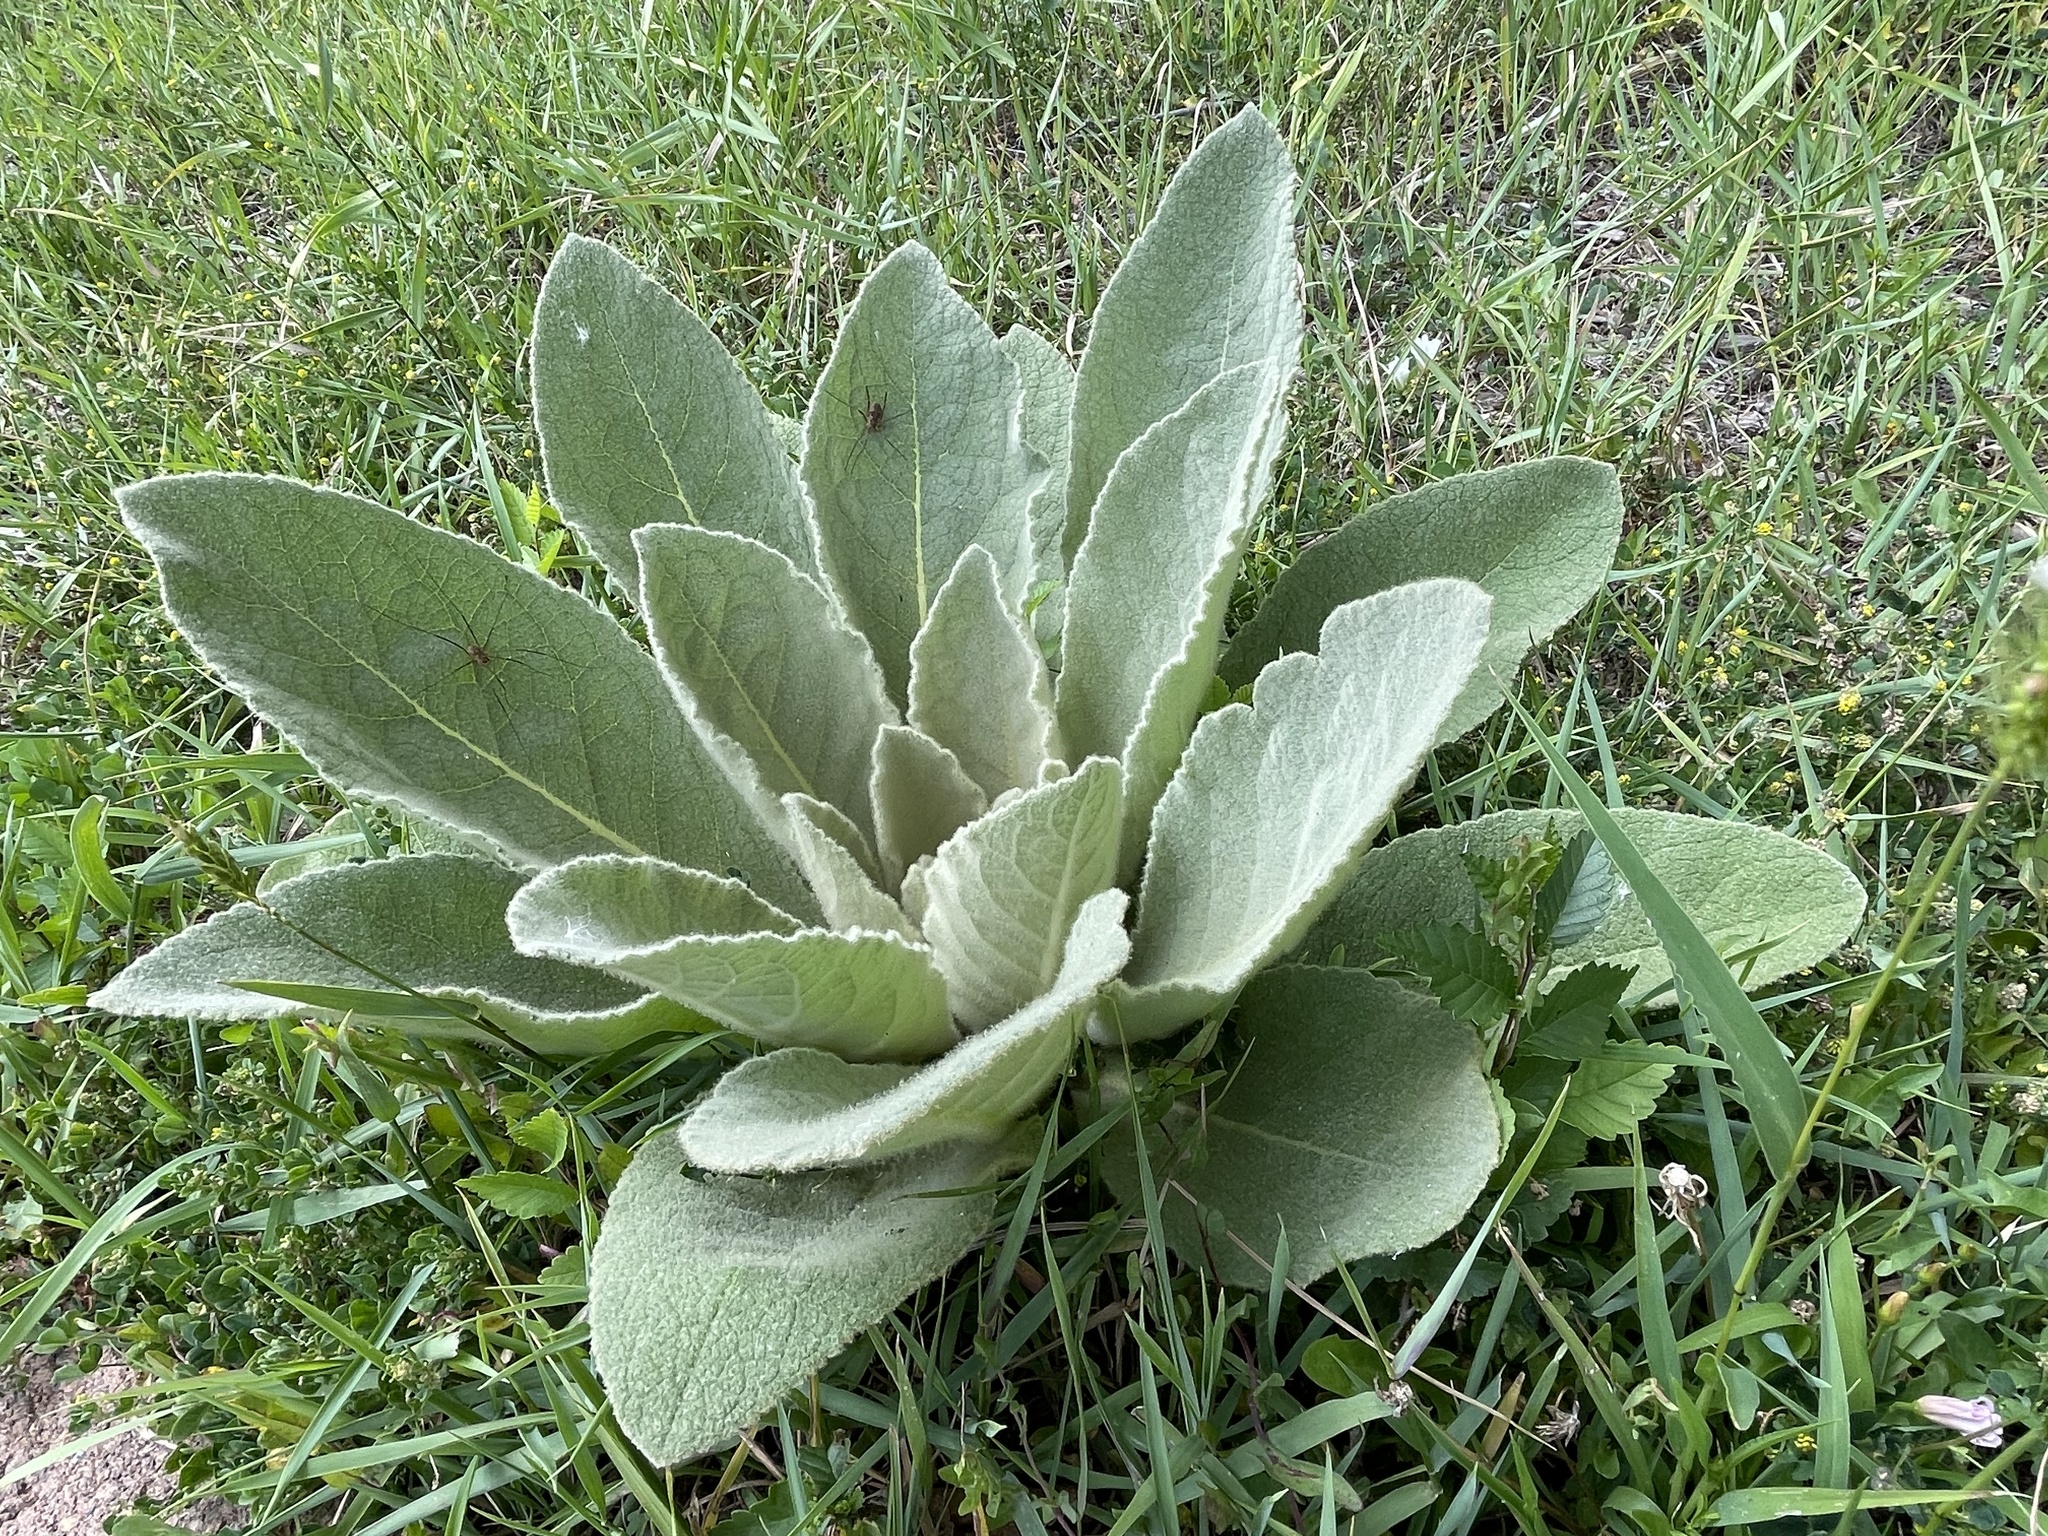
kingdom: Plantae
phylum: Tracheophyta
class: Magnoliopsida
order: Lamiales
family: Scrophulariaceae
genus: Verbascum
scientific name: Verbascum thapsus
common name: Common mullein
